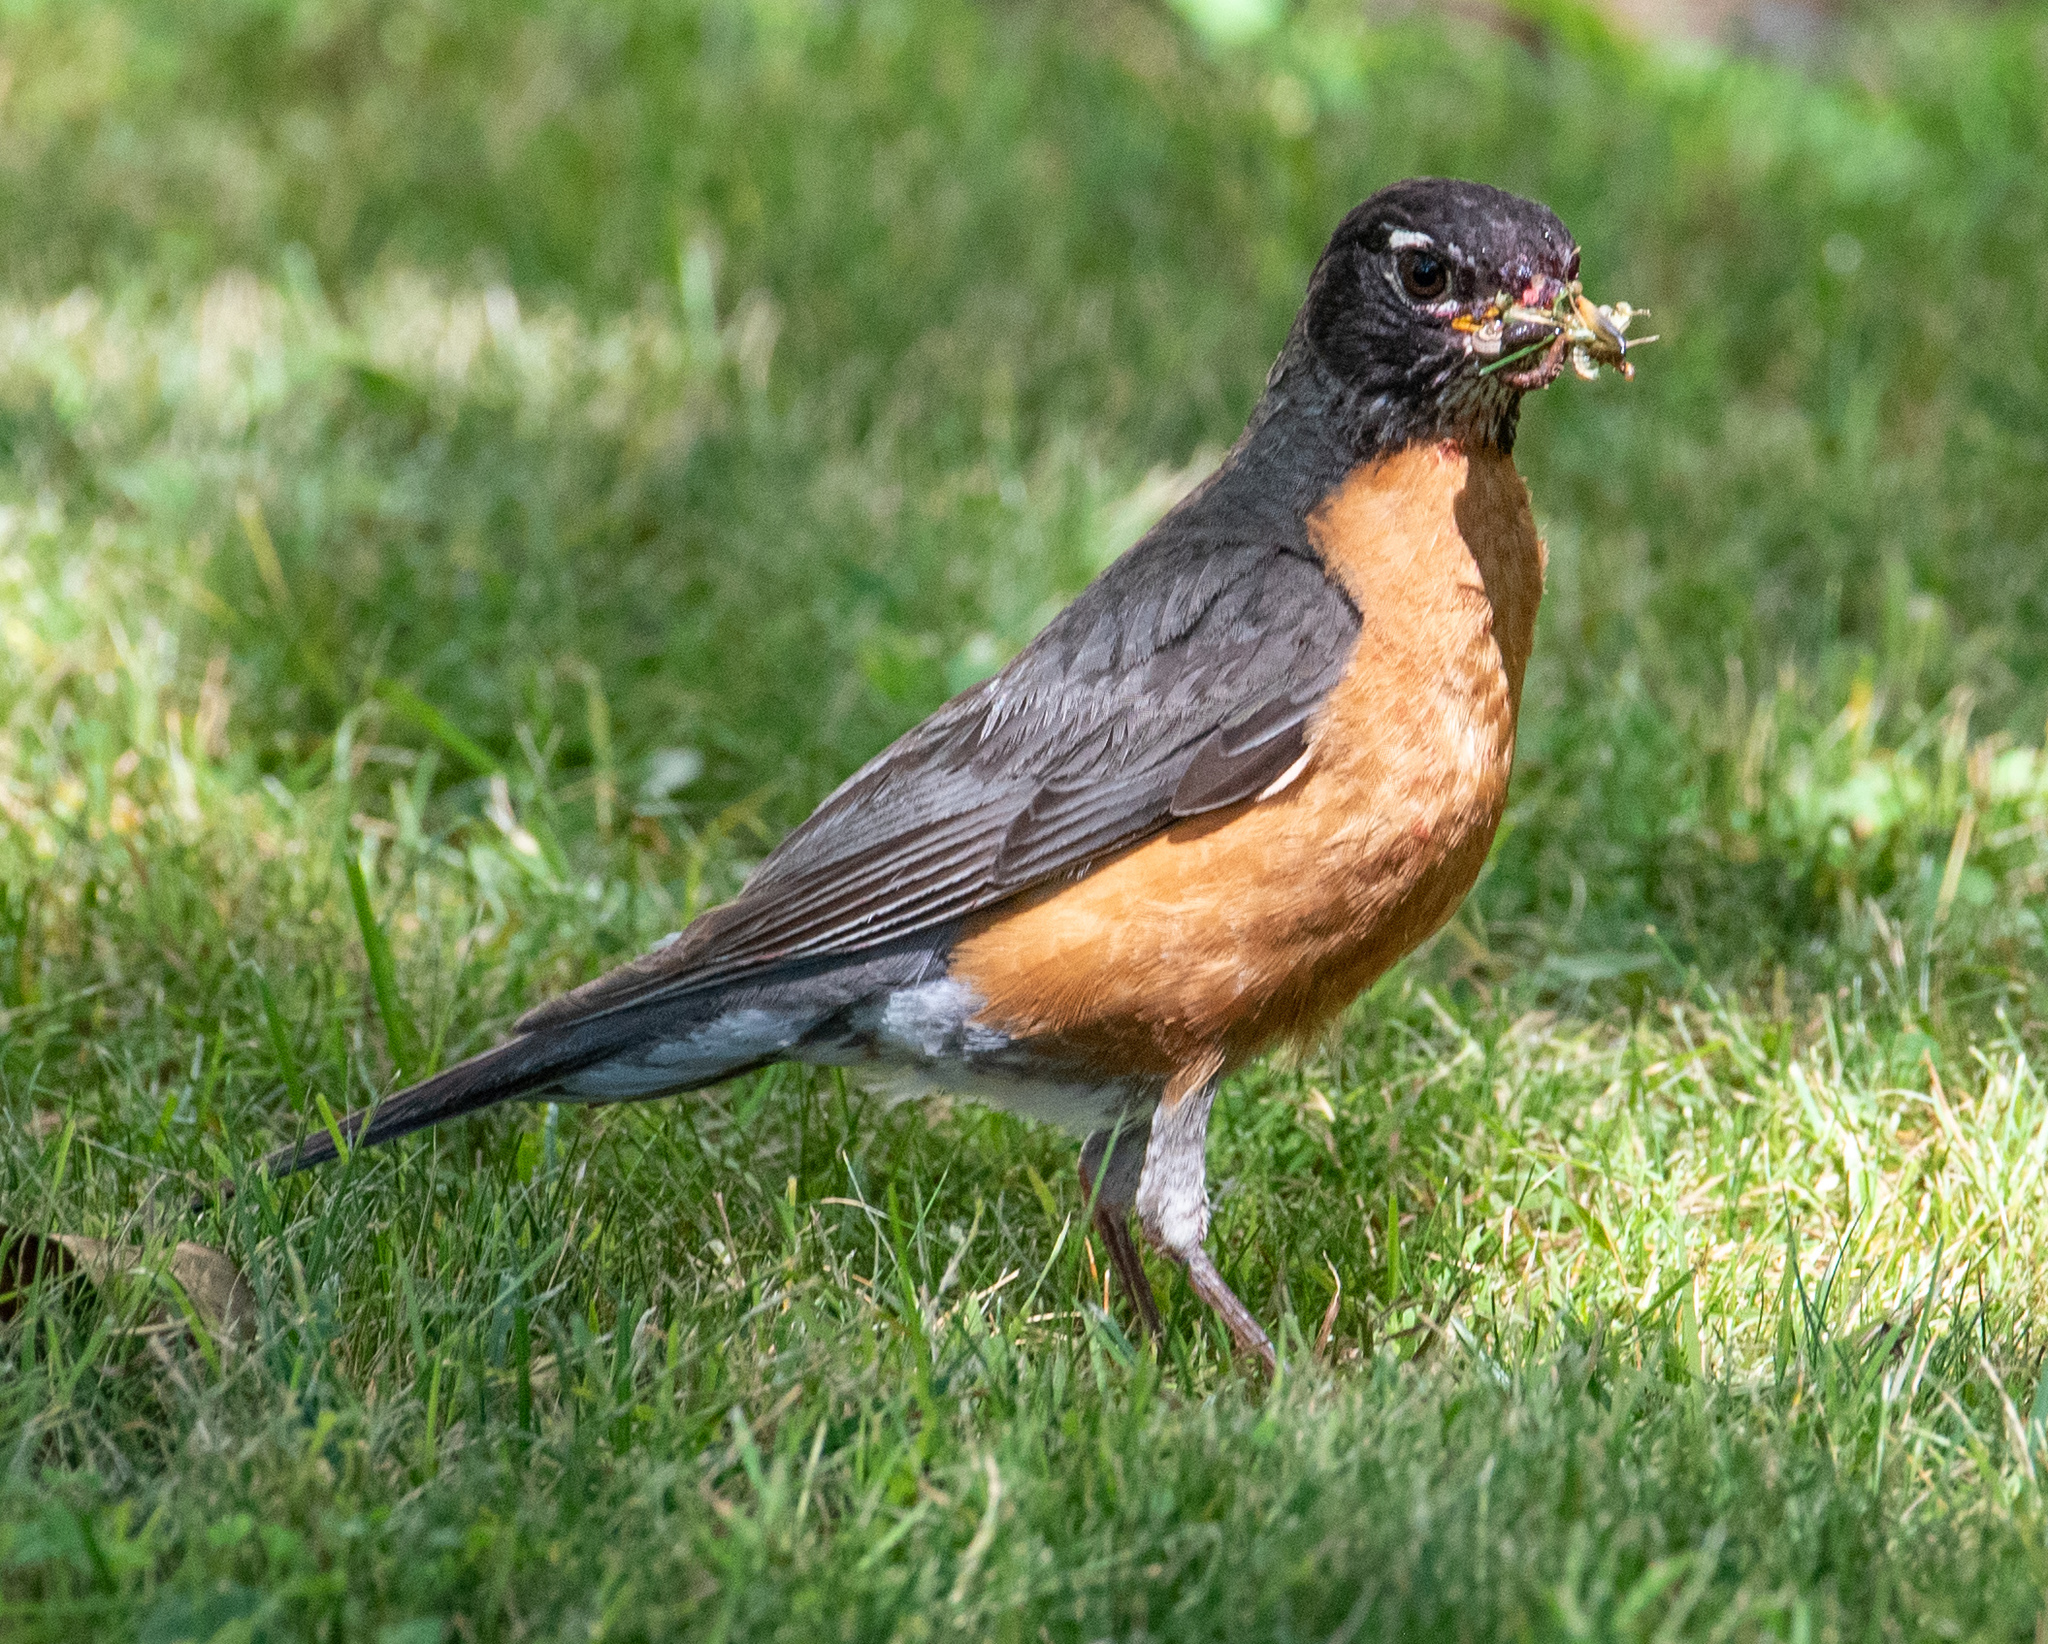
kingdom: Animalia
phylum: Chordata
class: Aves
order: Passeriformes
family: Turdidae
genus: Turdus
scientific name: Turdus migratorius
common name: American robin
